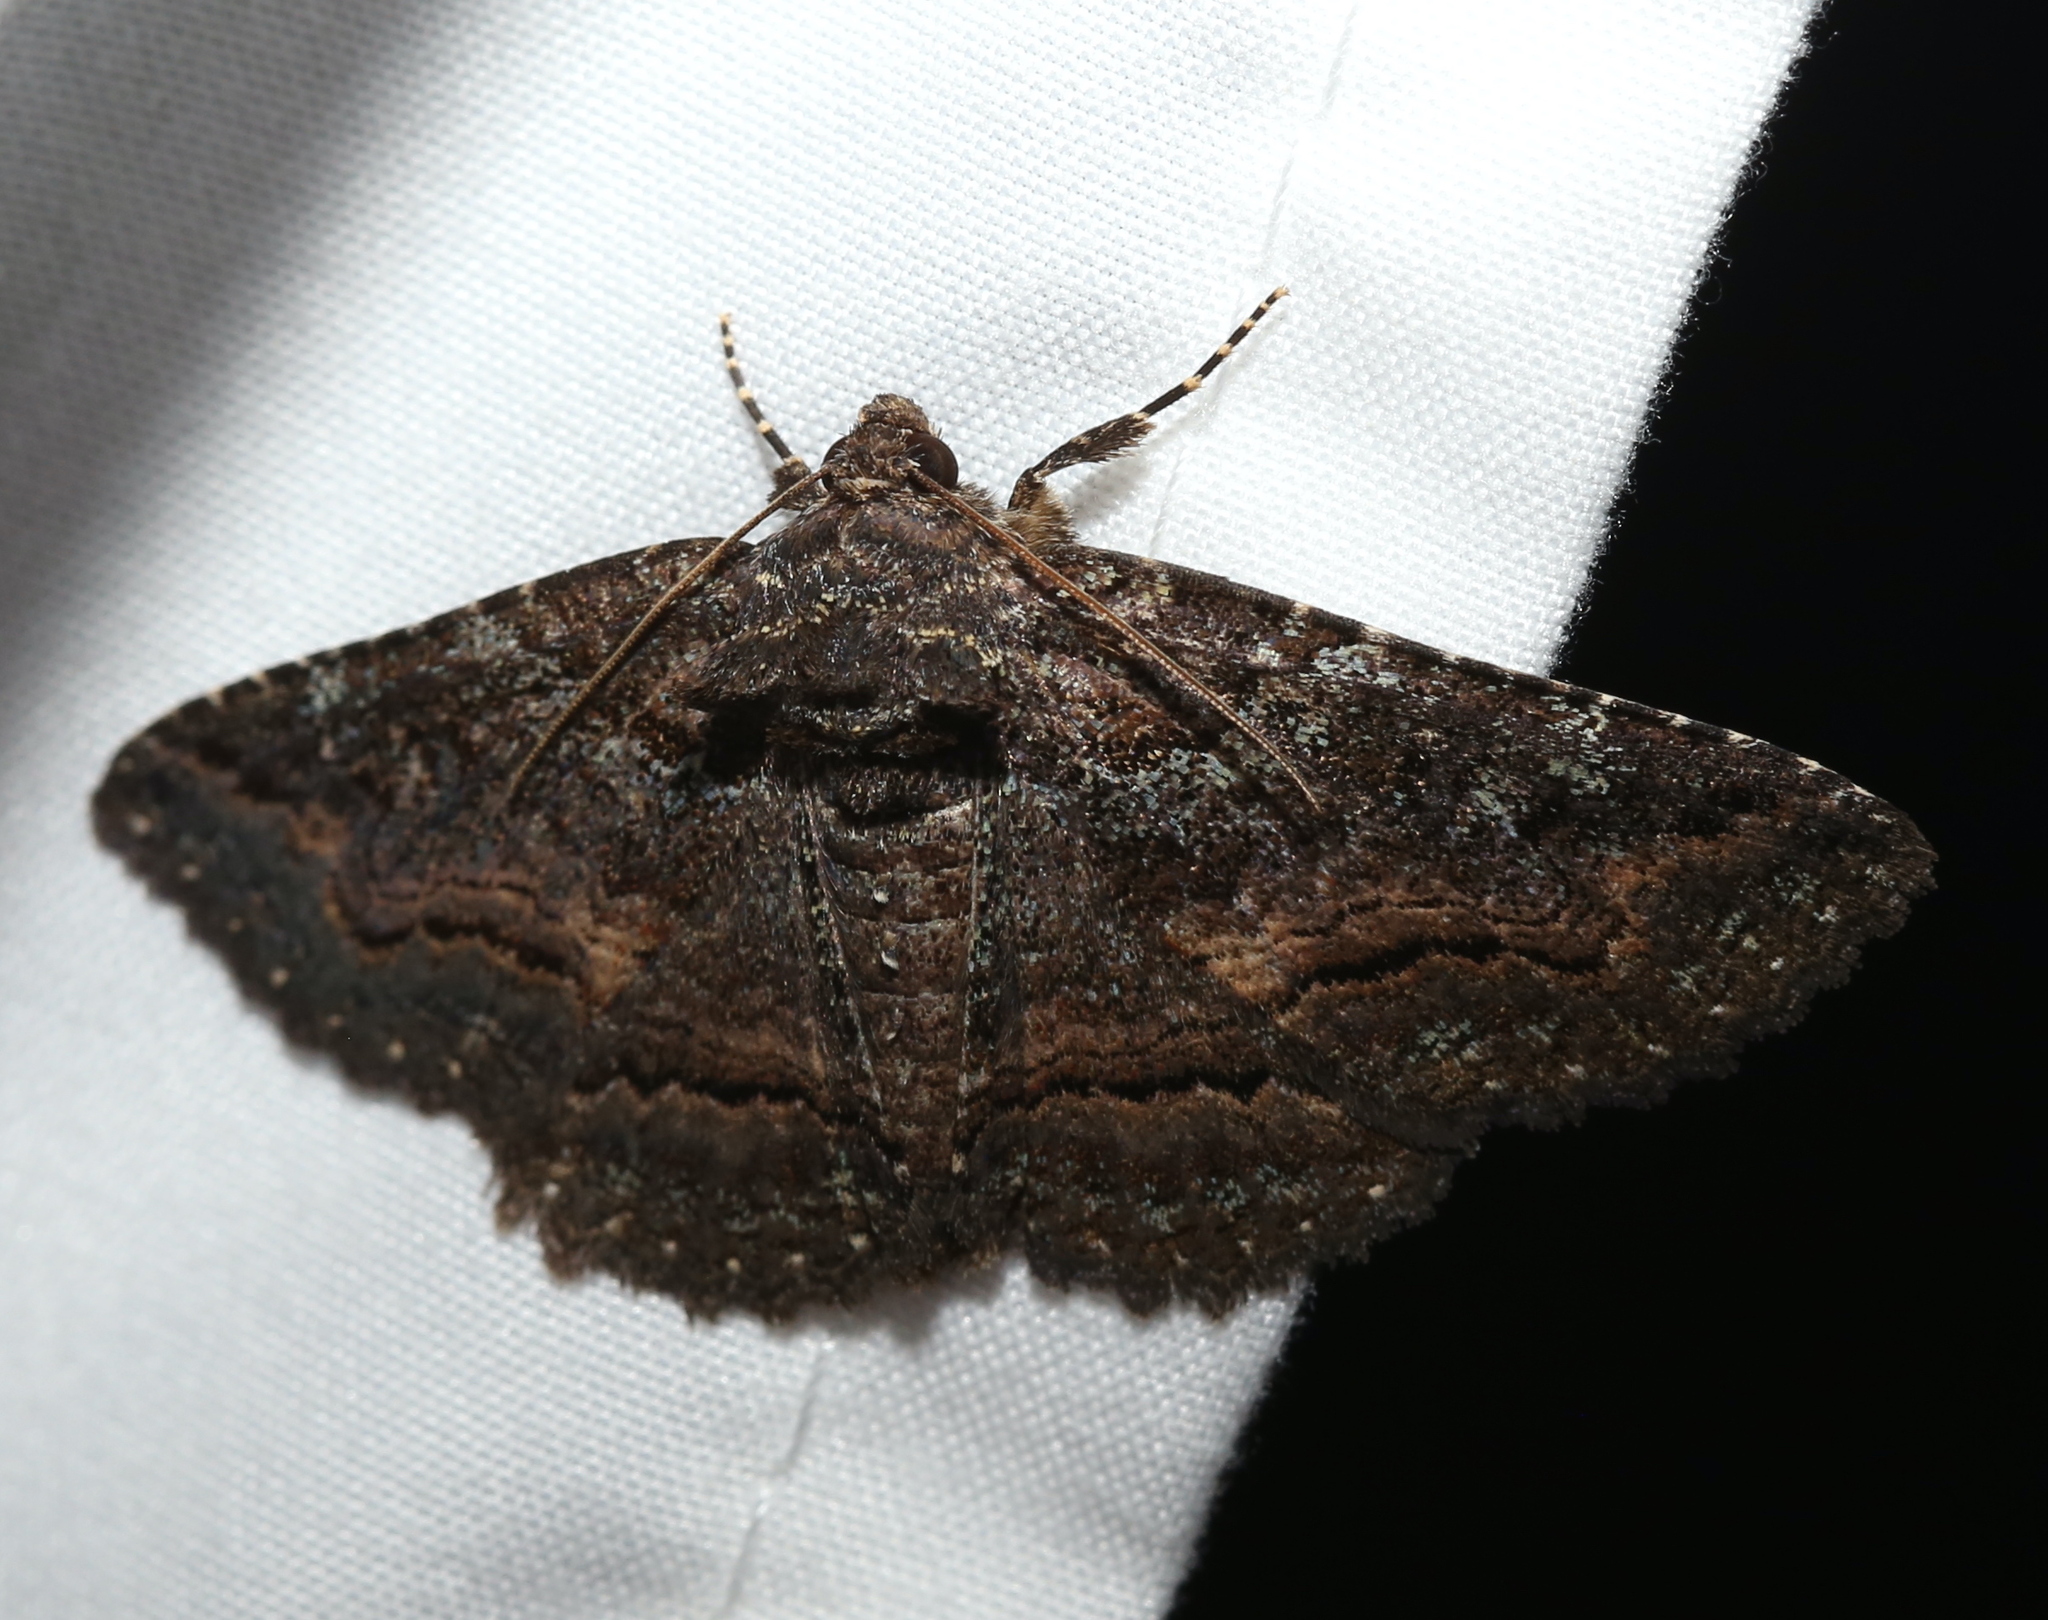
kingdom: Animalia
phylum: Arthropoda
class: Insecta
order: Lepidoptera
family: Erebidae
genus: Zale
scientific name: Zale aeruginosa
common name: Green-dusted zale moth
